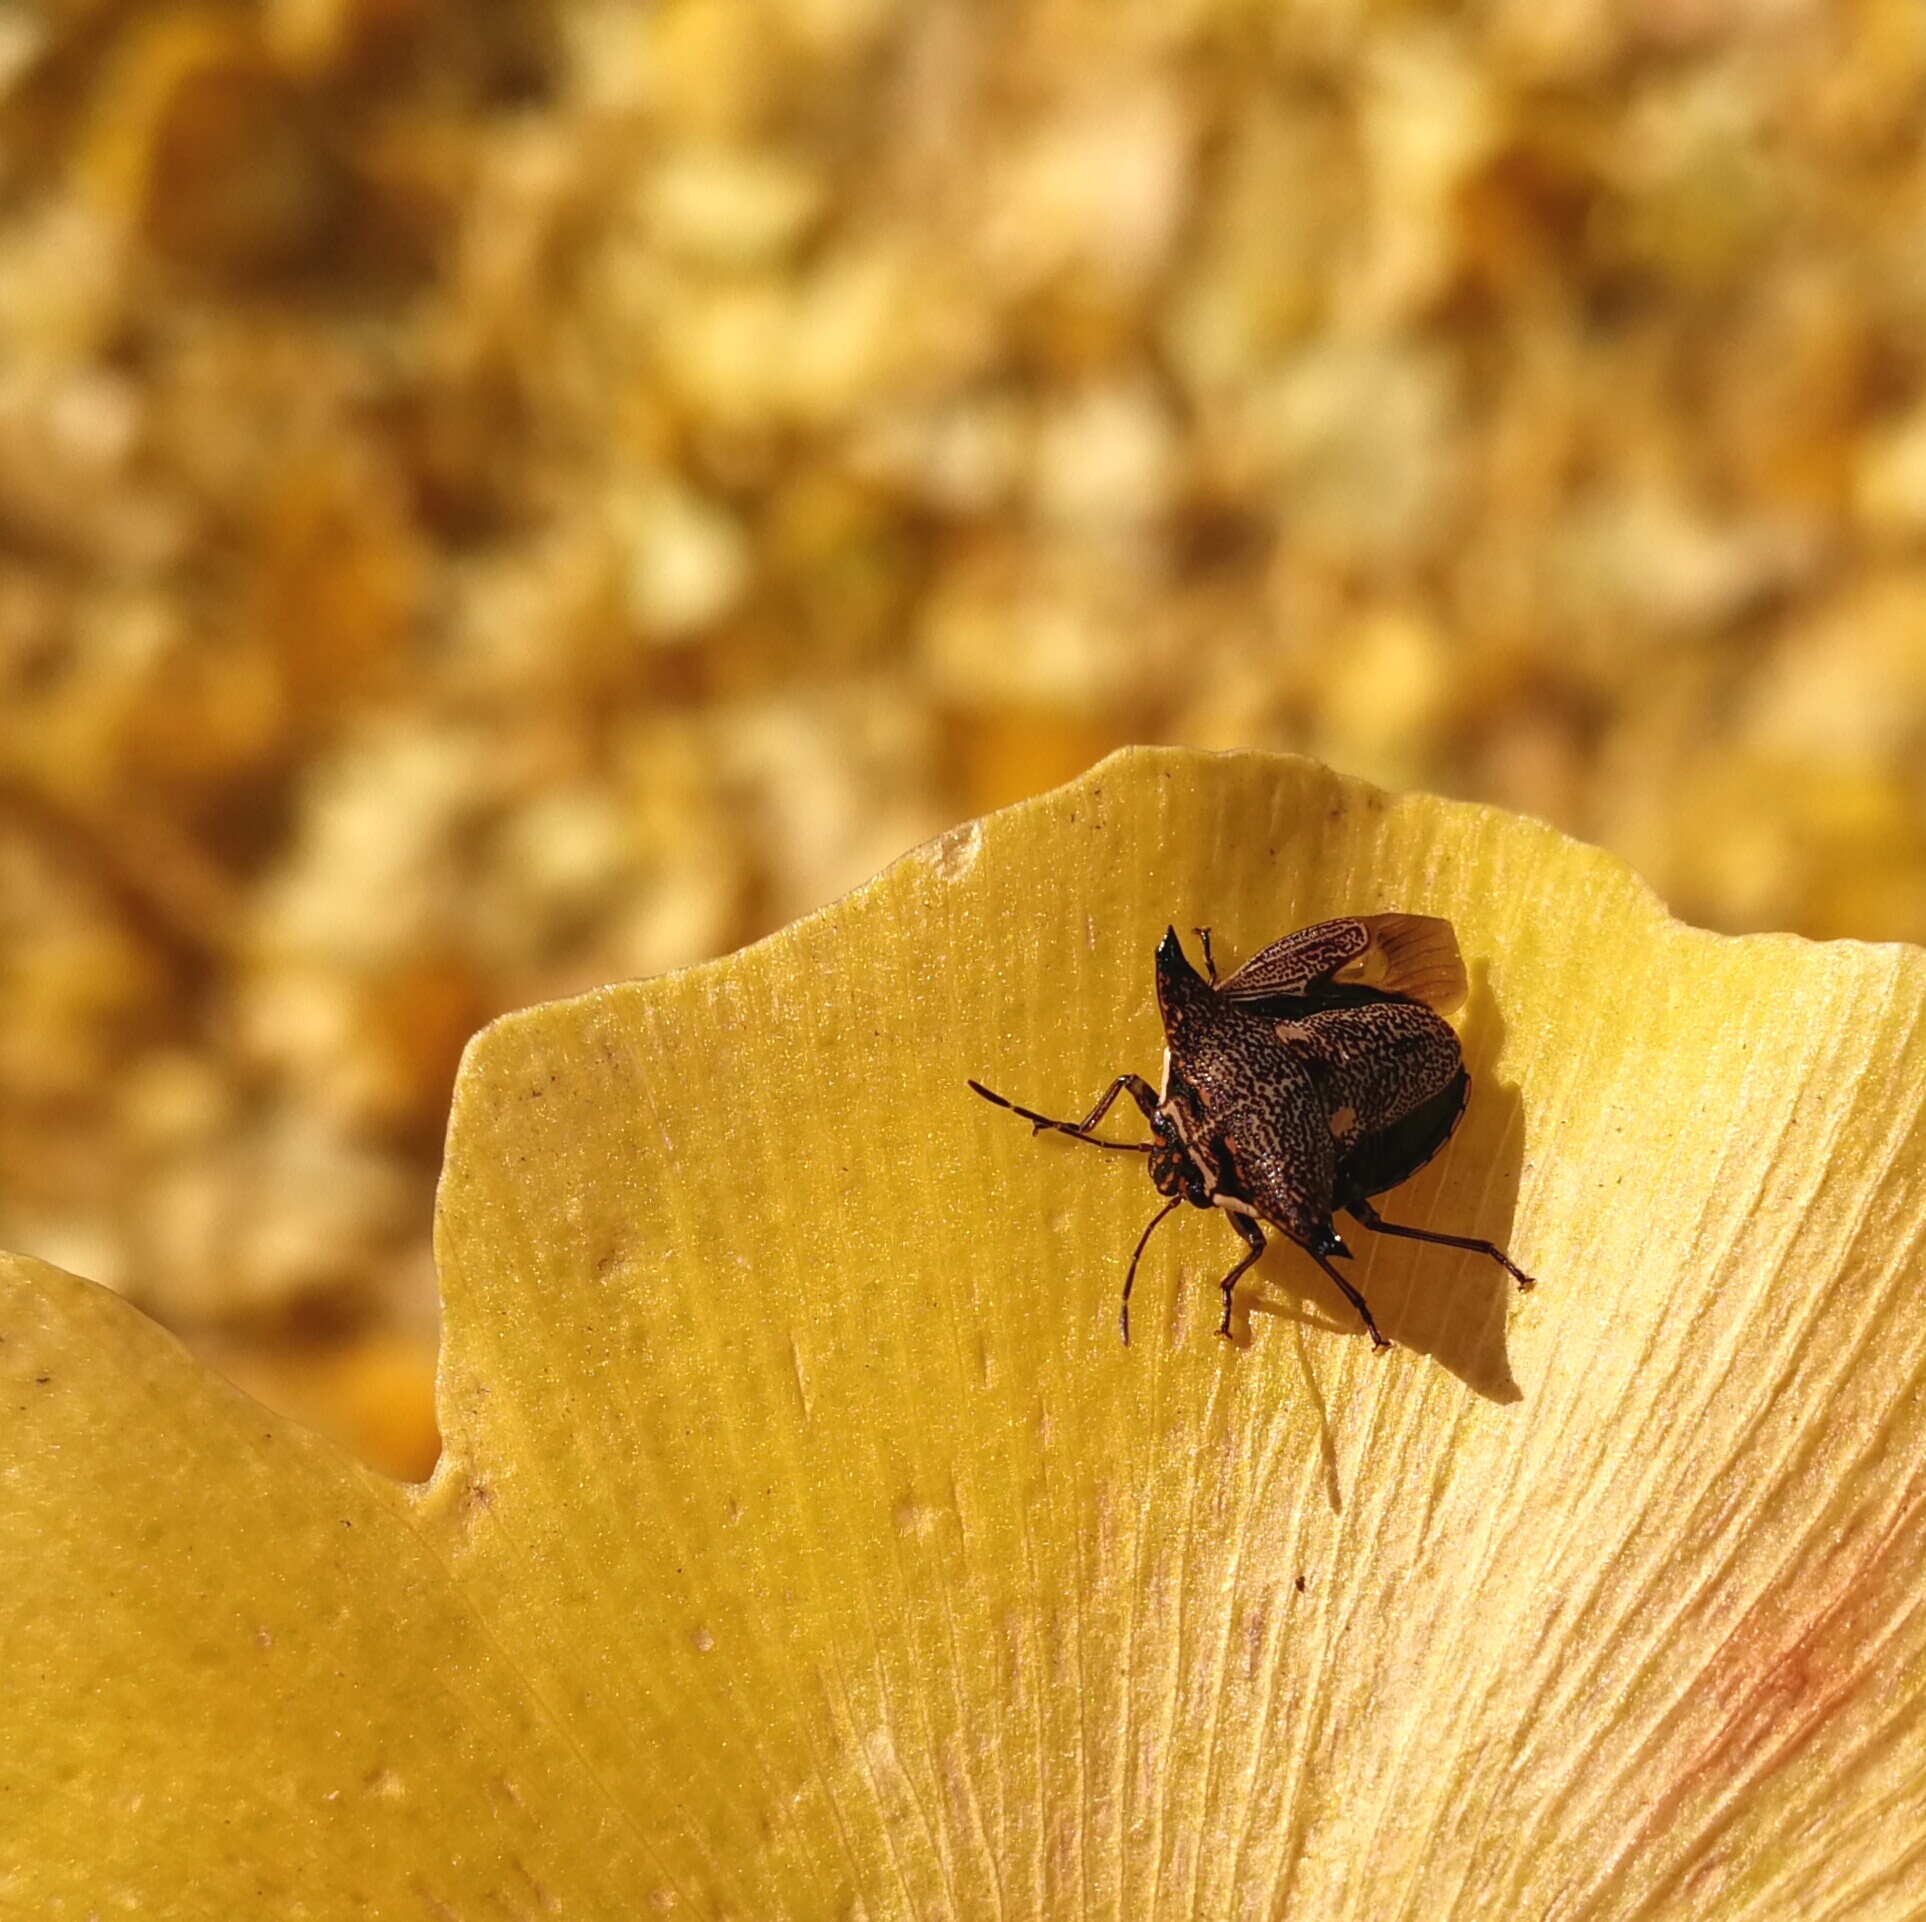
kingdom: Animalia
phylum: Arthropoda
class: Insecta
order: Hemiptera
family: Pentatomidae
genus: Alcimocoris
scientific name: Alcimocoris japonersis
